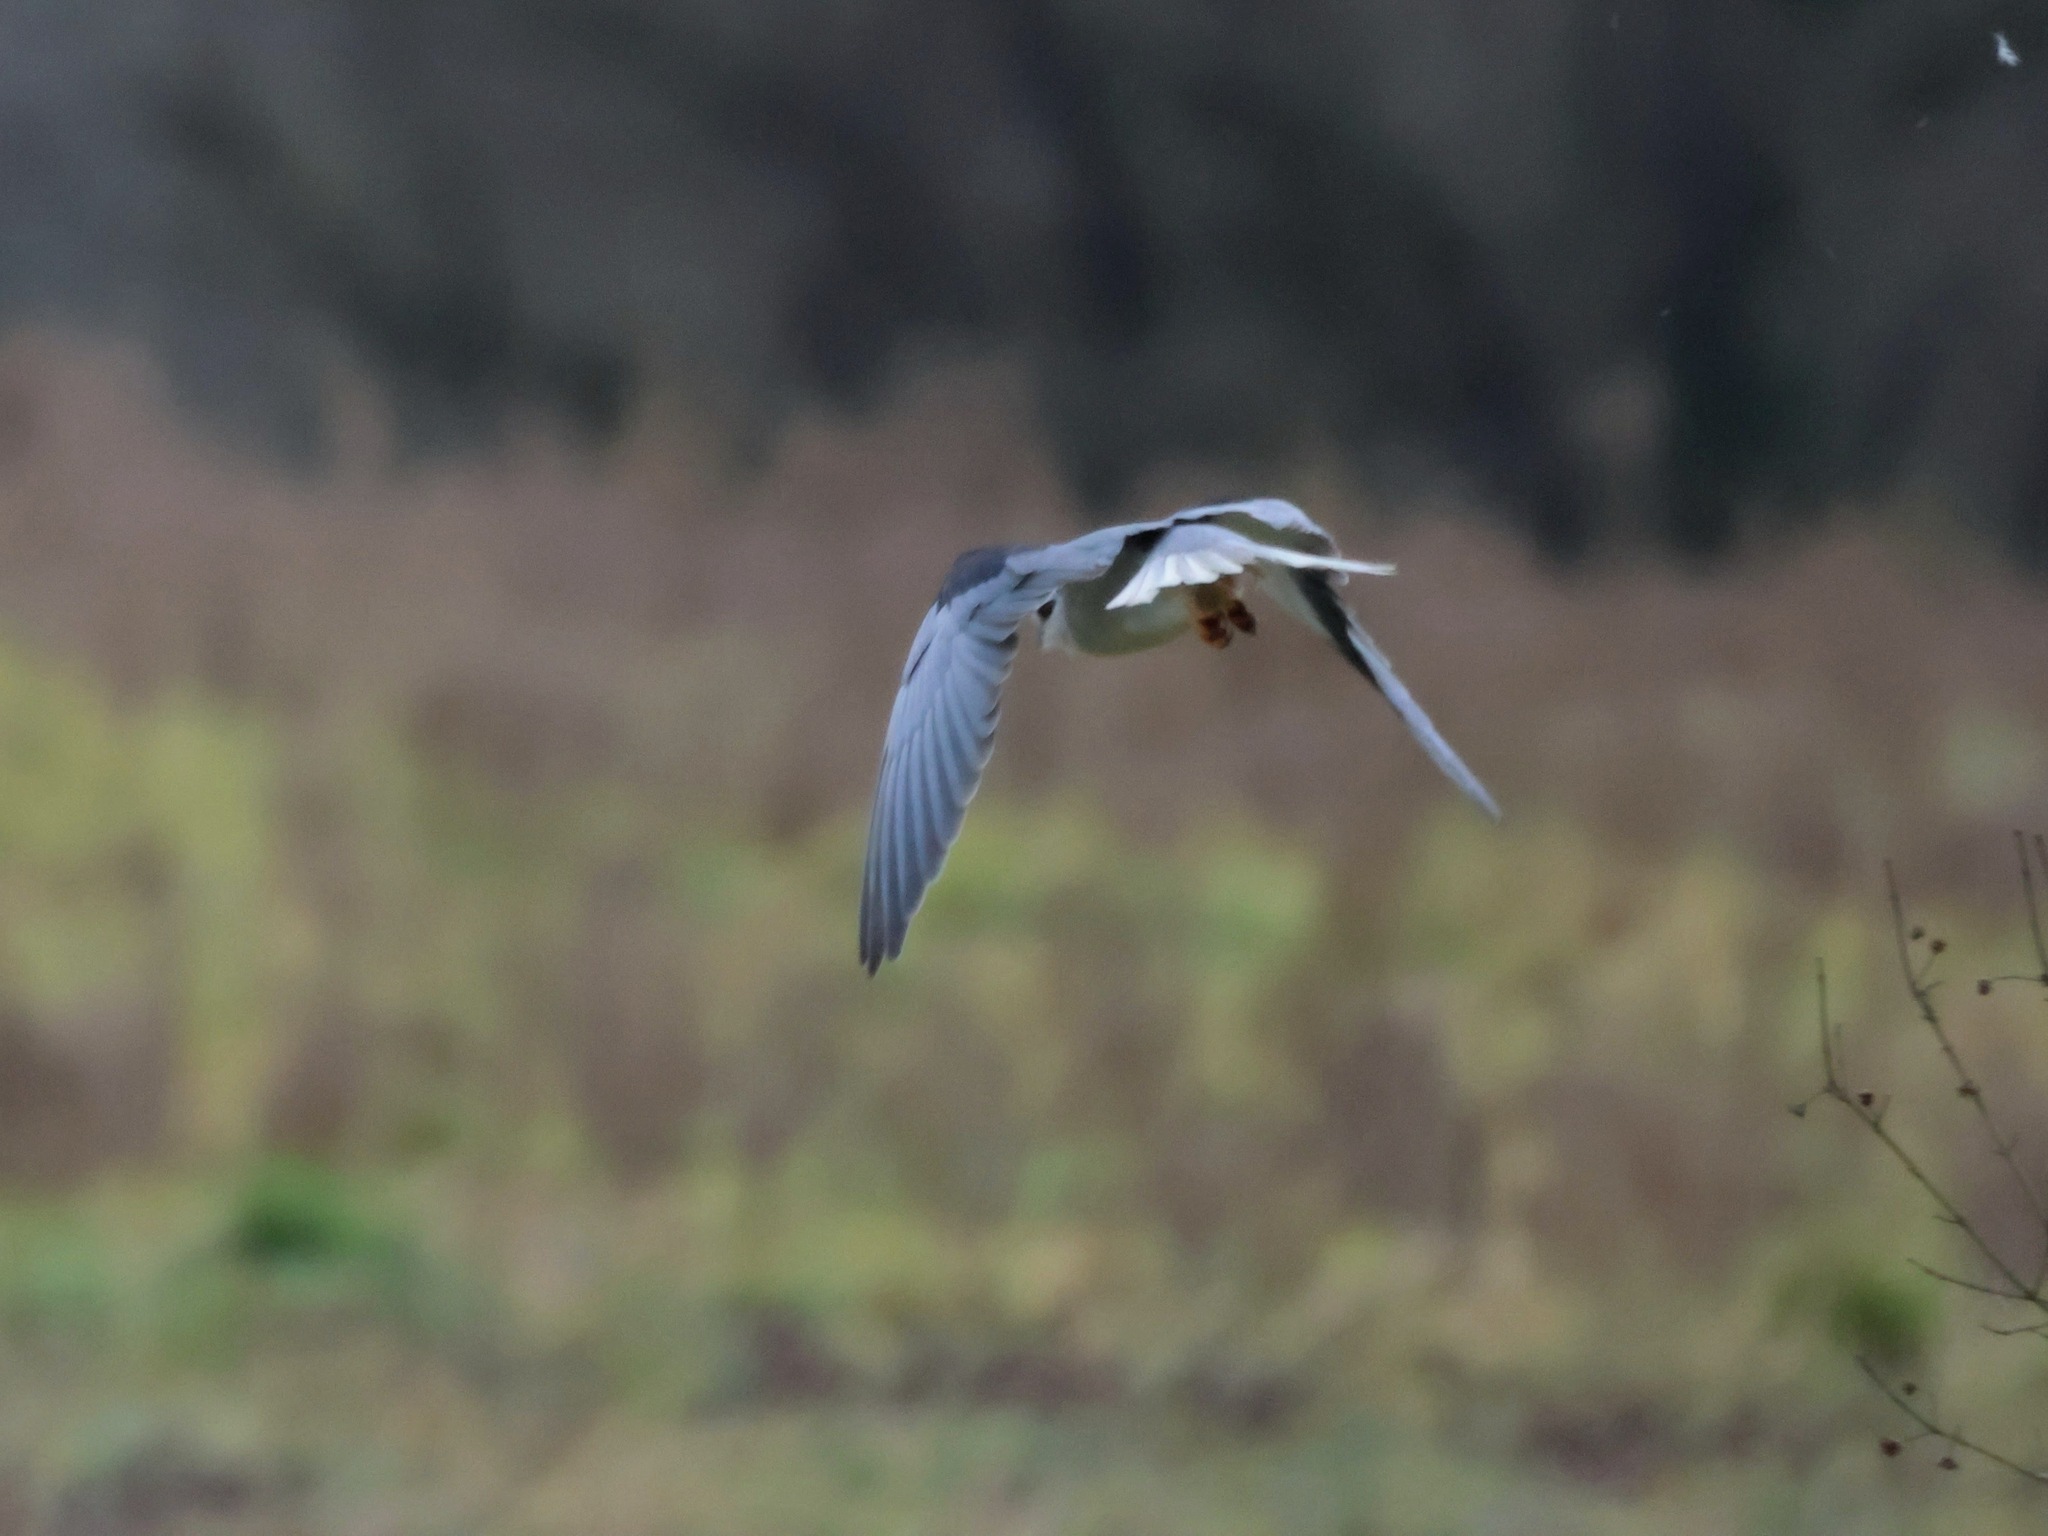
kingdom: Animalia
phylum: Chordata
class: Aves
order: Accipitriformes
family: Accipitridae
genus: Elanus
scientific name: Elanus caeruleus
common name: Black-winged kite
